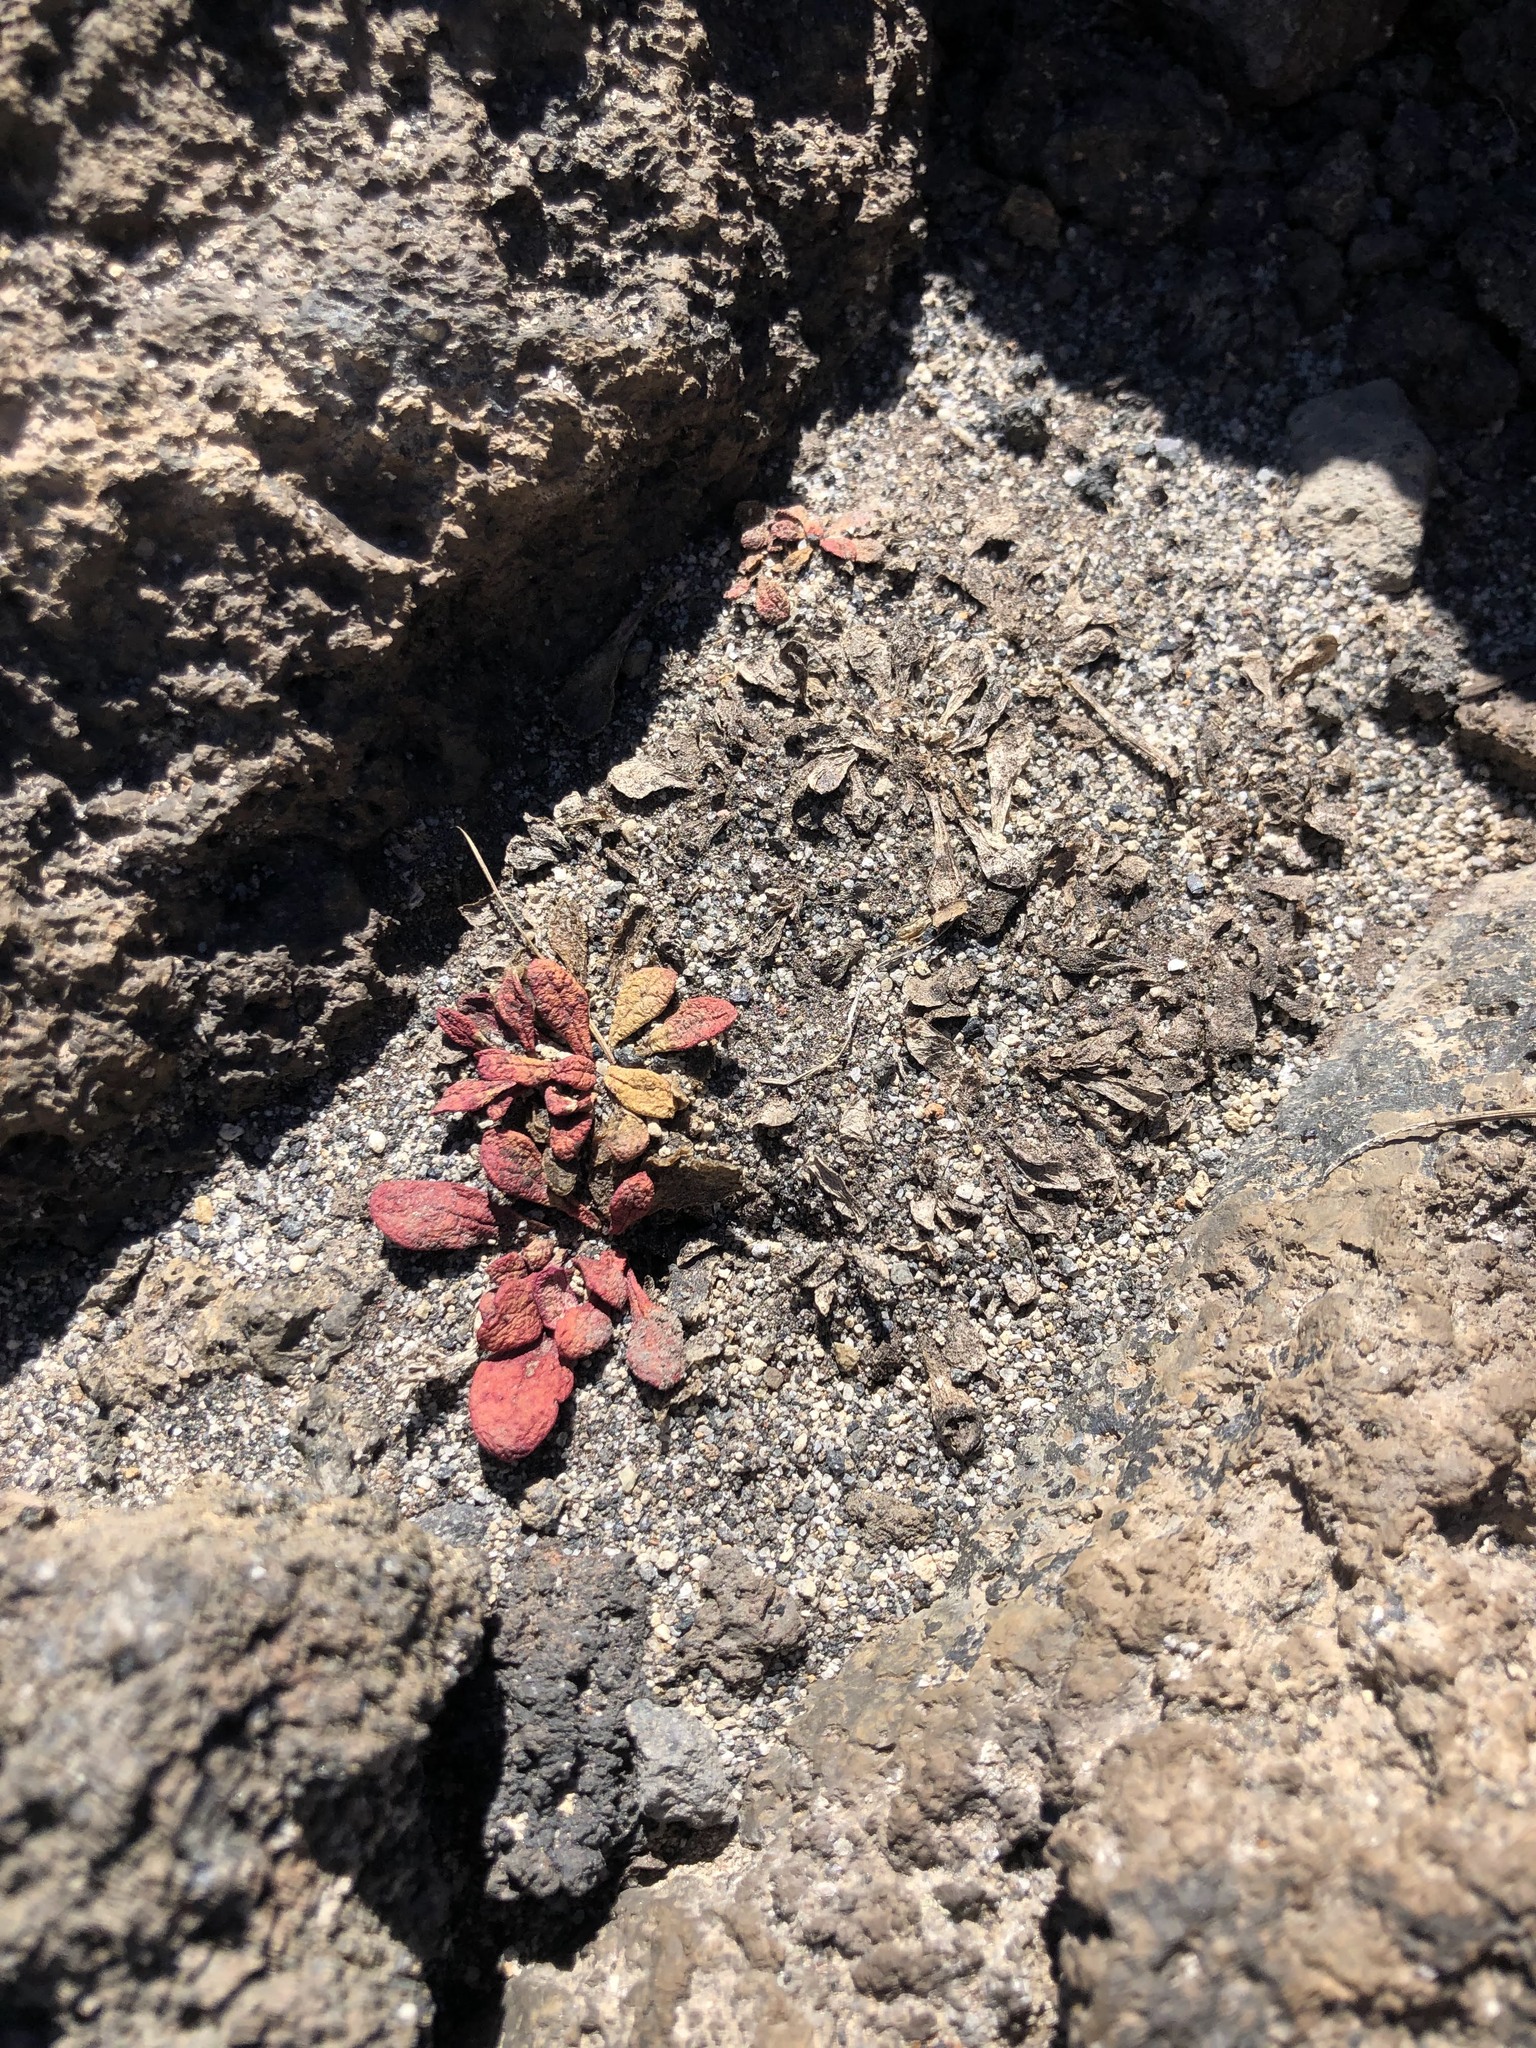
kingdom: Plantae
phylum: Tracheophyta
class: Magnoliopsida
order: Caryophyllales
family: Montiaceae
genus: Calyptridium
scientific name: Calyptridium umbellatum
